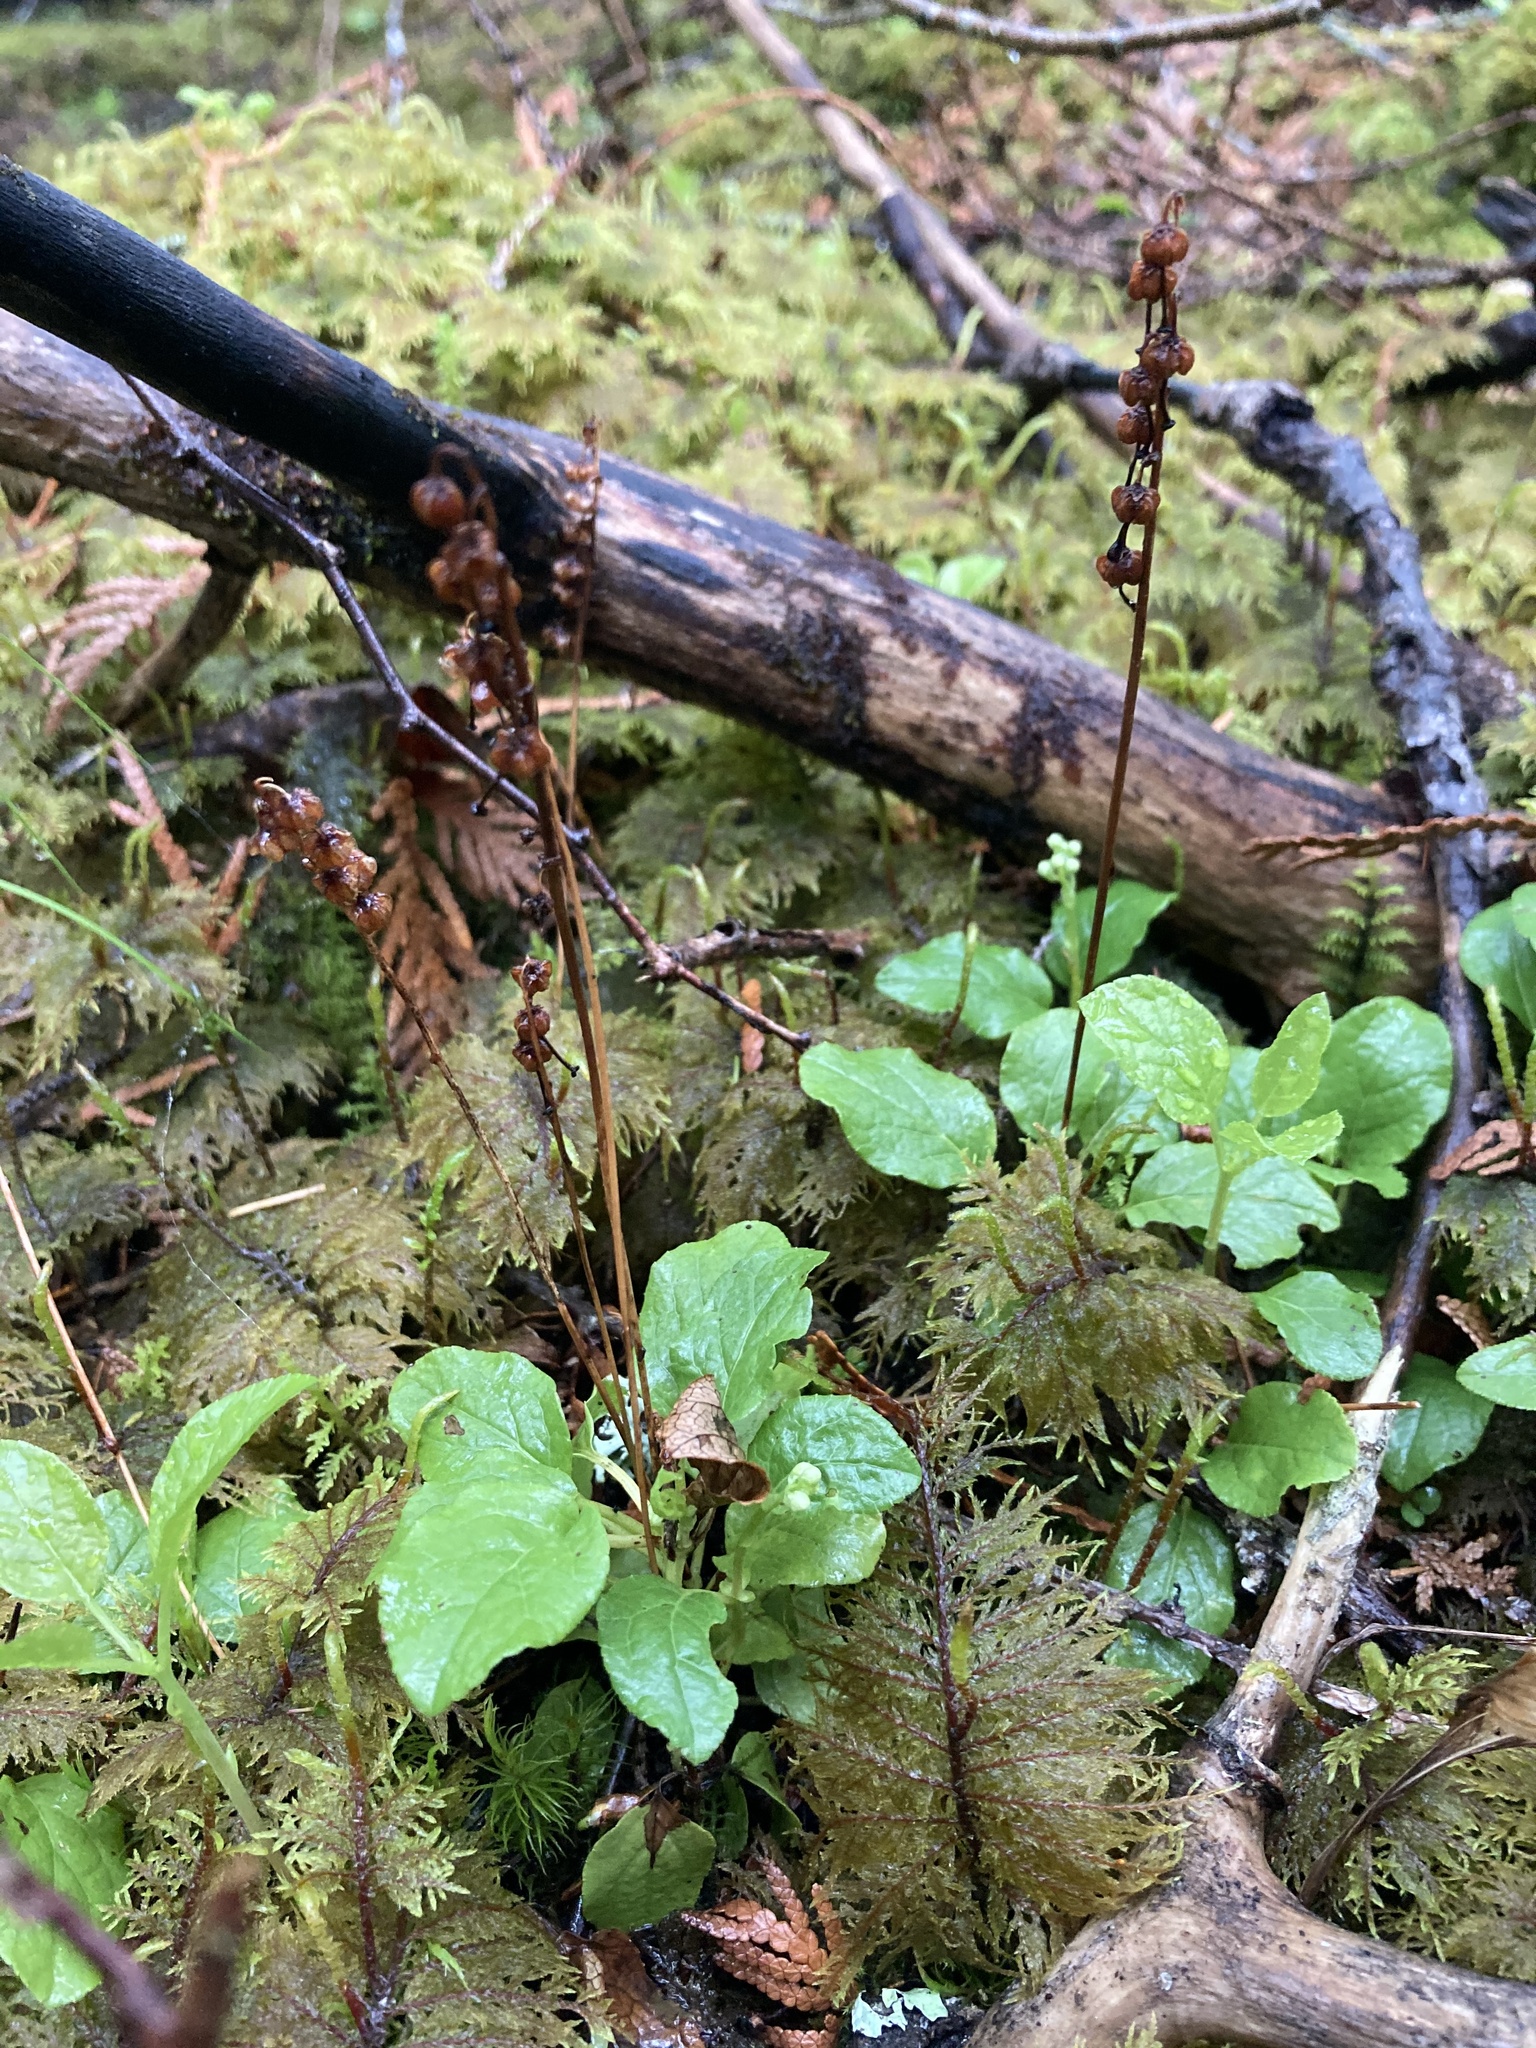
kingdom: Plantae
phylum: Tracheophyta
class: Magnoliopsida
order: Ericales
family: Ericaceae
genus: Orthilia
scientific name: Orthilia secunda
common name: One-sided orthilia
